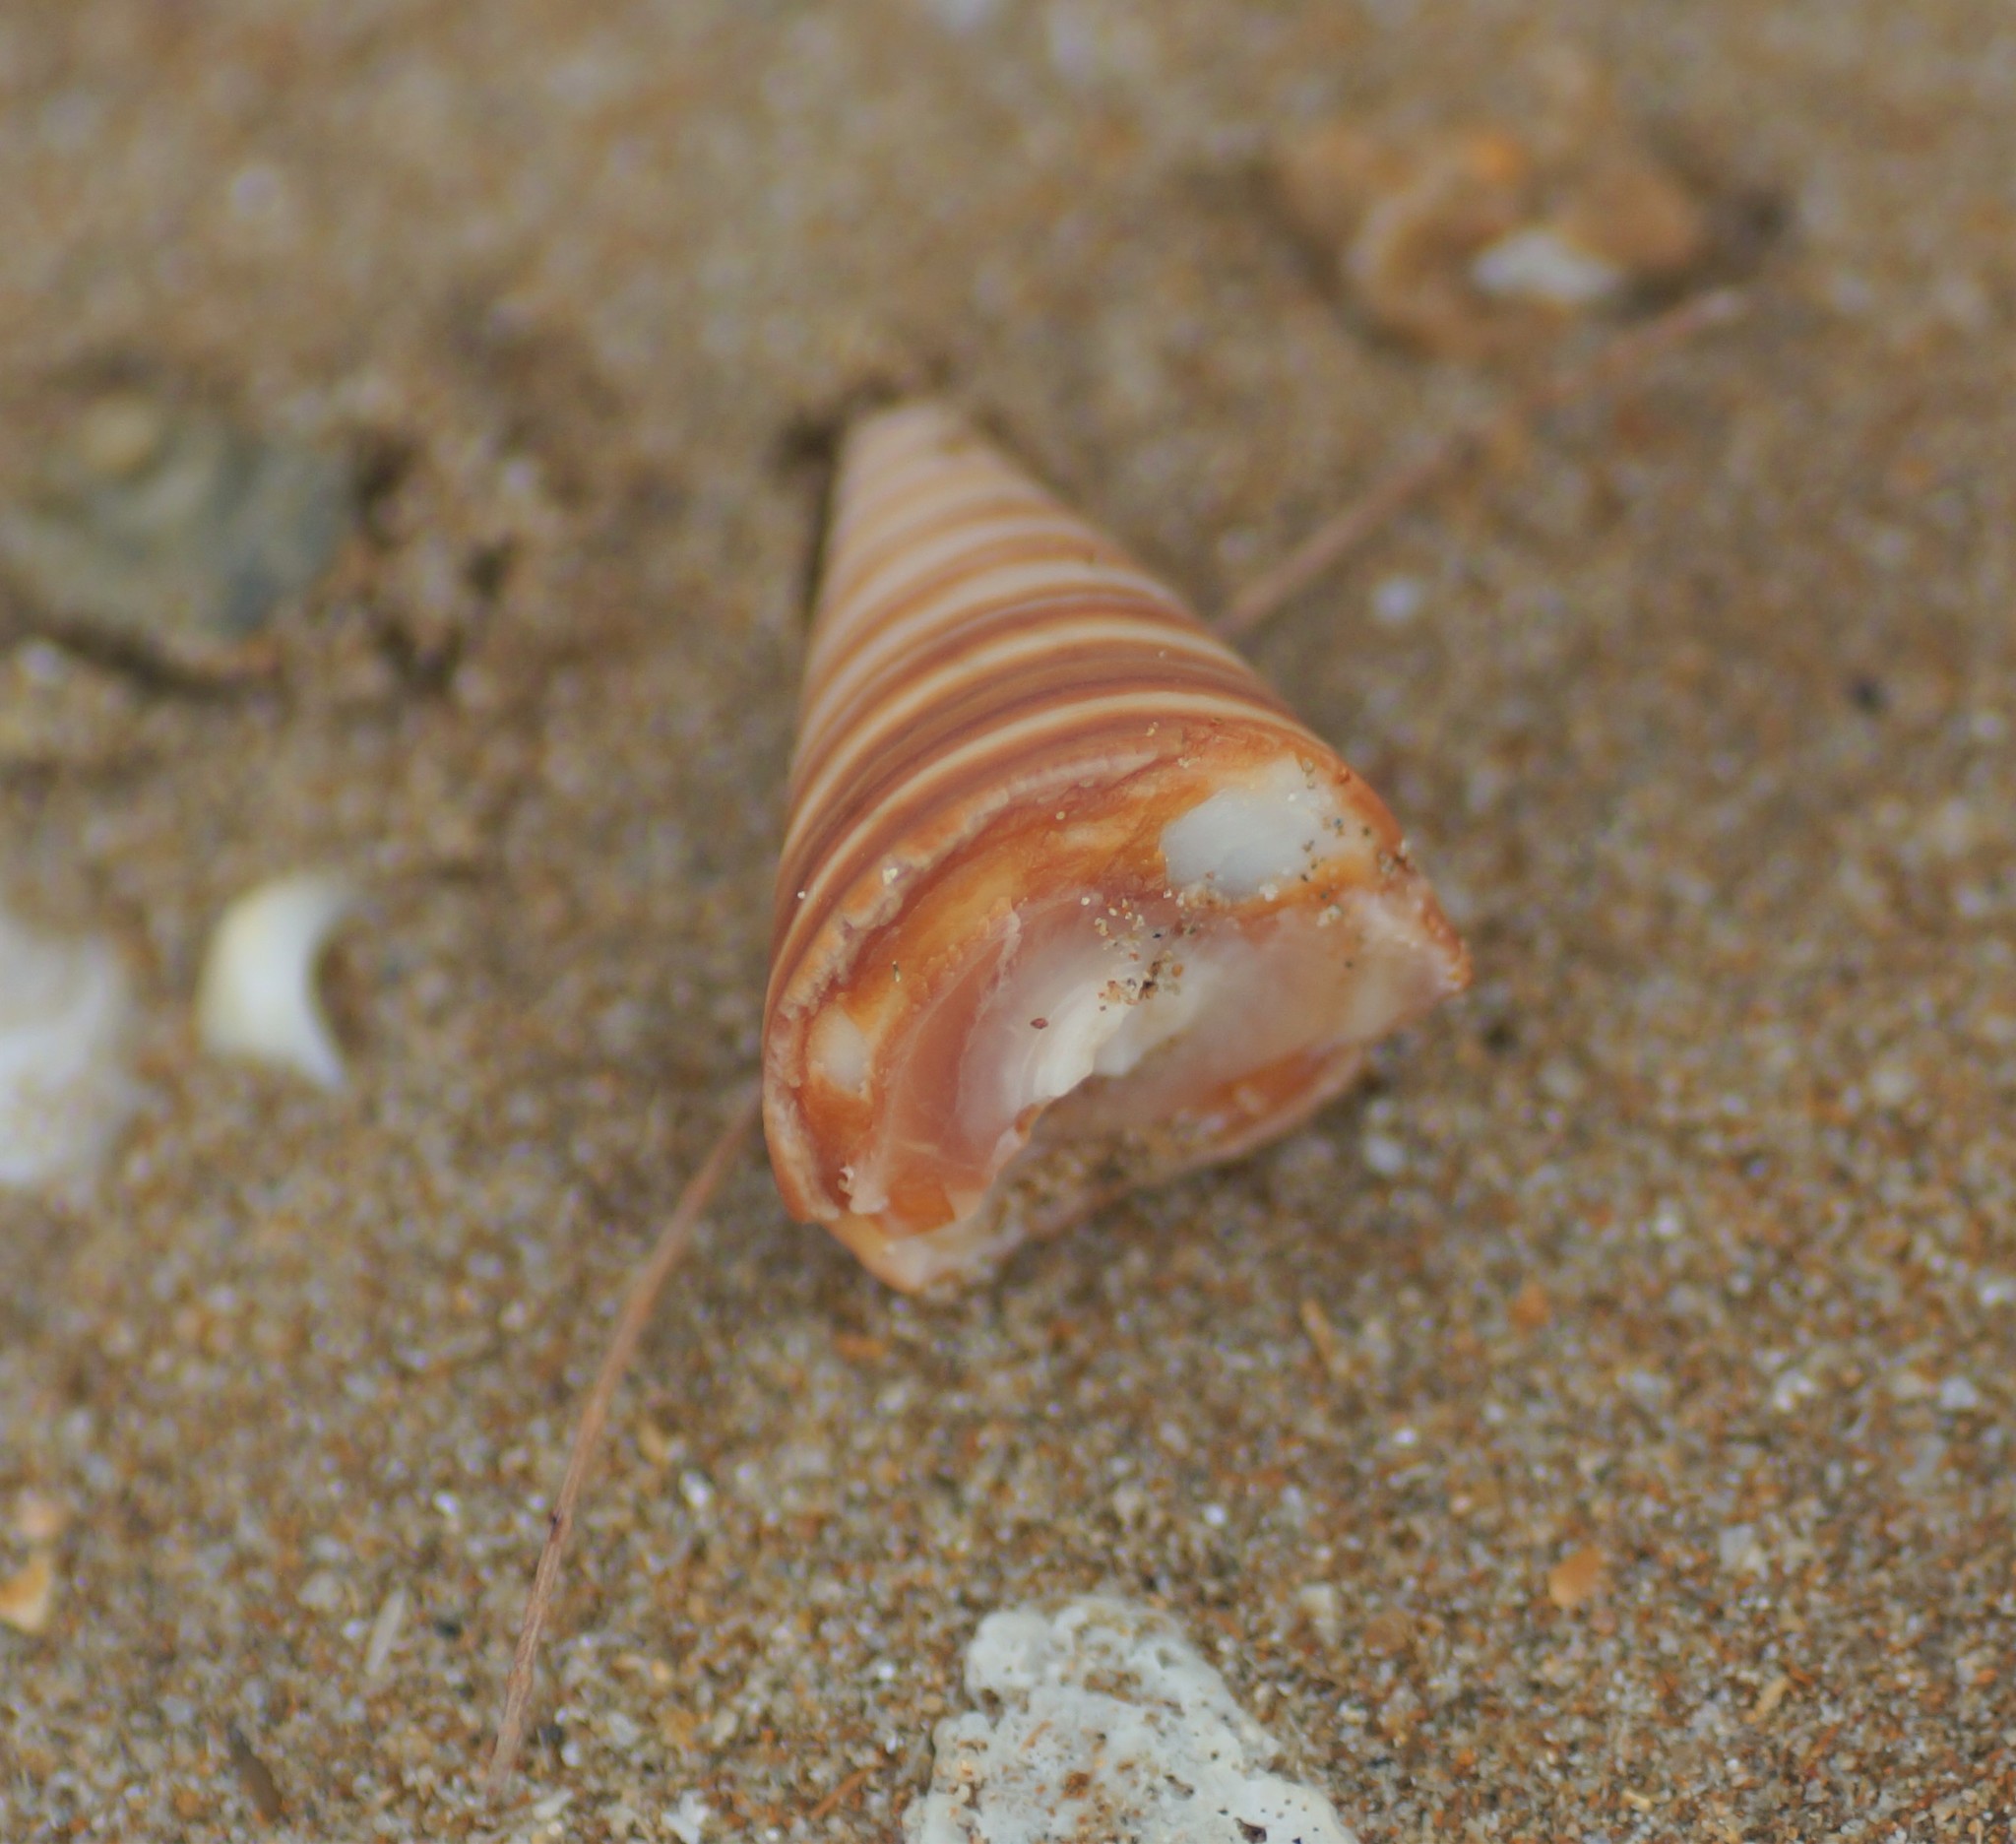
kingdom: Animalia
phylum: Mollusca
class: Gastropoda
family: Potamididae
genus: Telescopium
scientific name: Telescopium telescopium
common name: Telescope creeper
